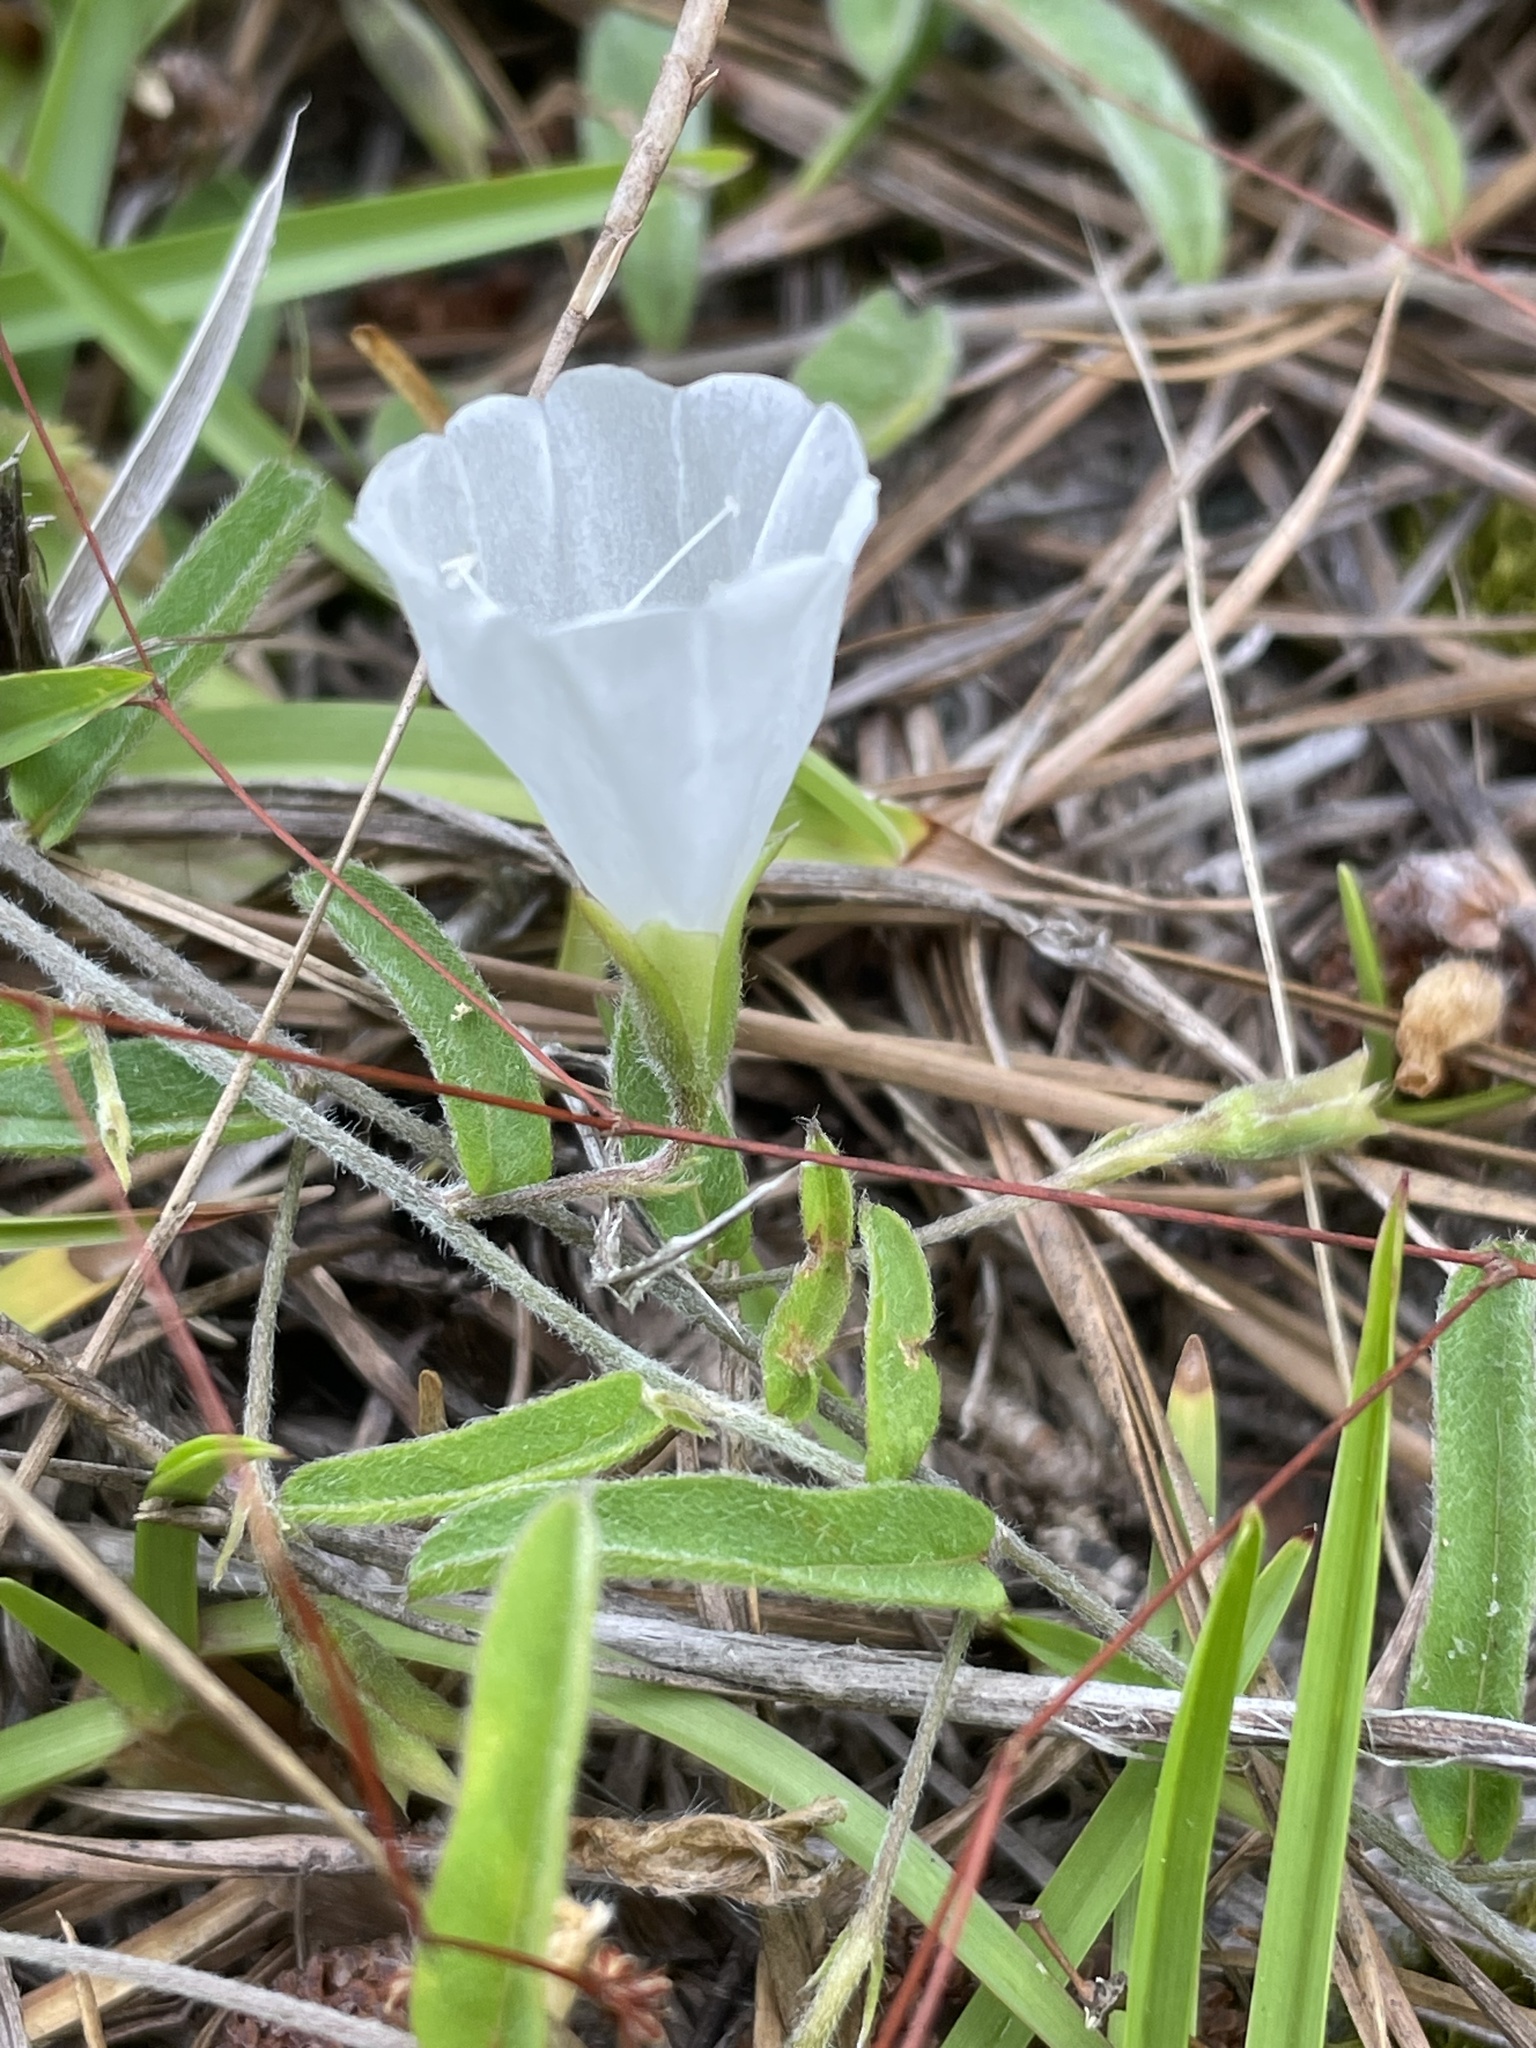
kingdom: Plantae
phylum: Tracheophyta
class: Magnoliopsida
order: Solanales
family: Convolvulaceae
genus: Stylisma
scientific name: Stylisma patens
